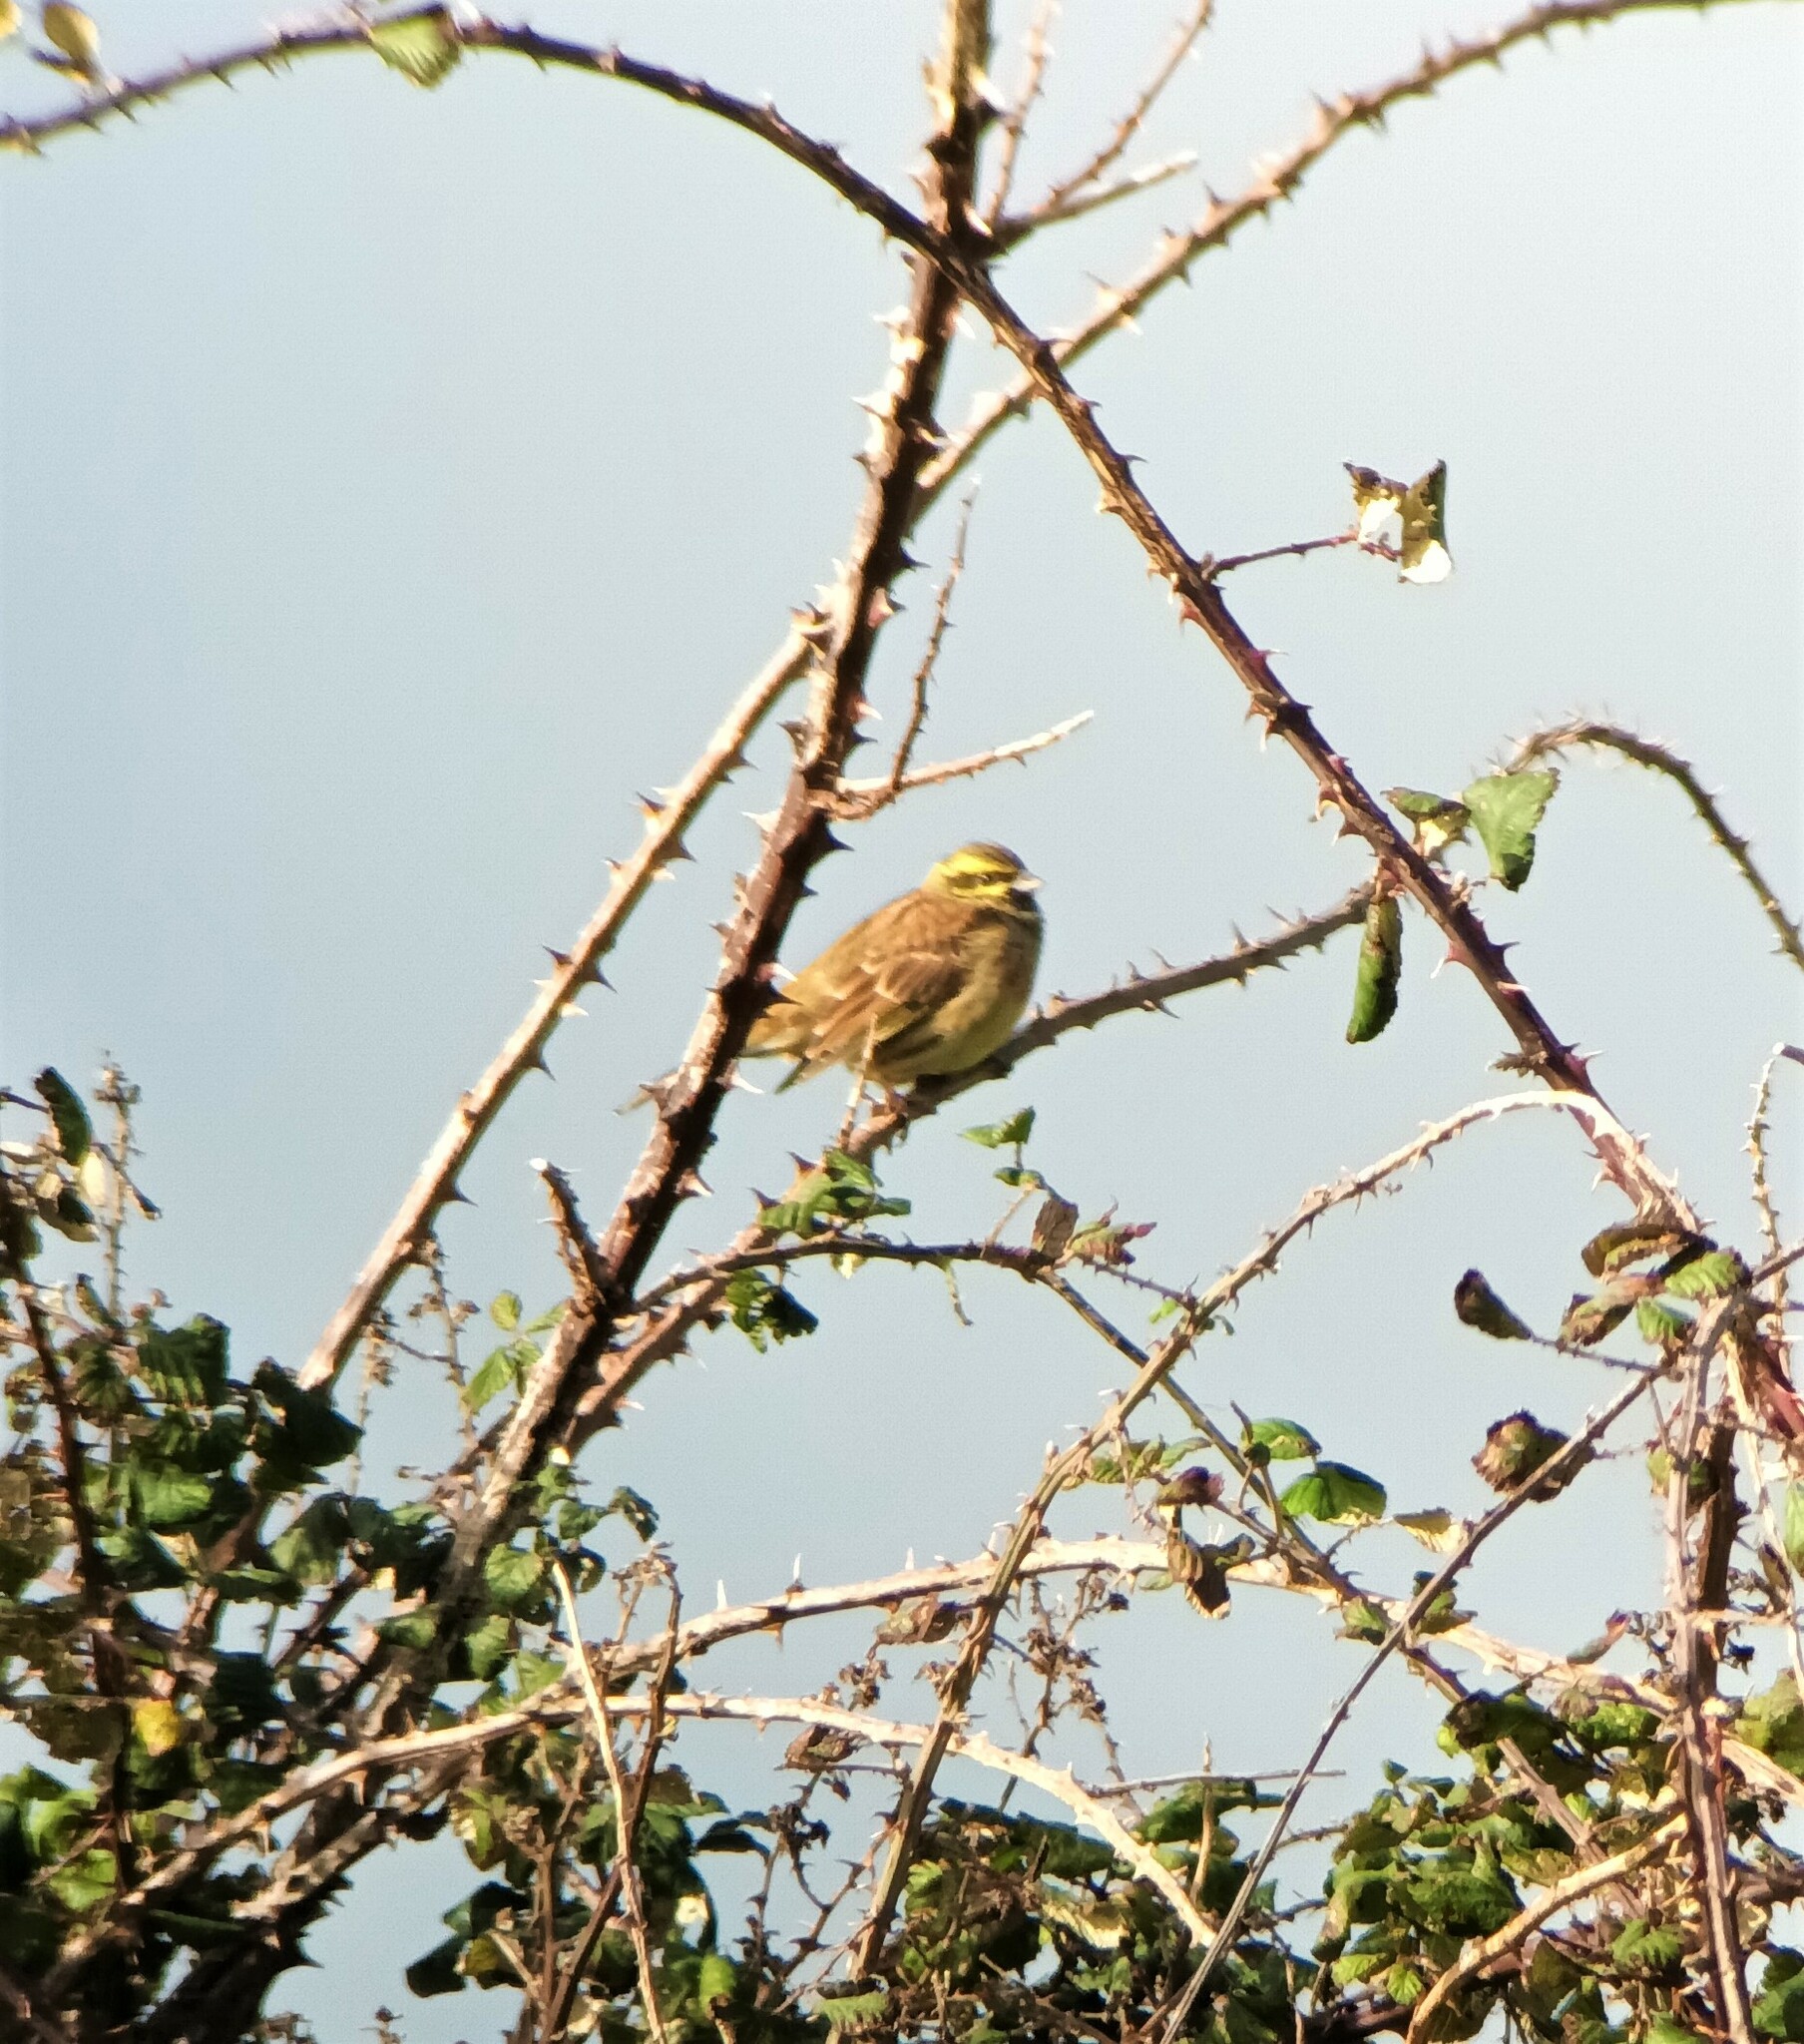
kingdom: Animalia
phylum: Chordata
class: Aves
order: Passeriformes
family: Emberizidae
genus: Emberiza
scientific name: Emberiza cirlus
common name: Cirl bunting
